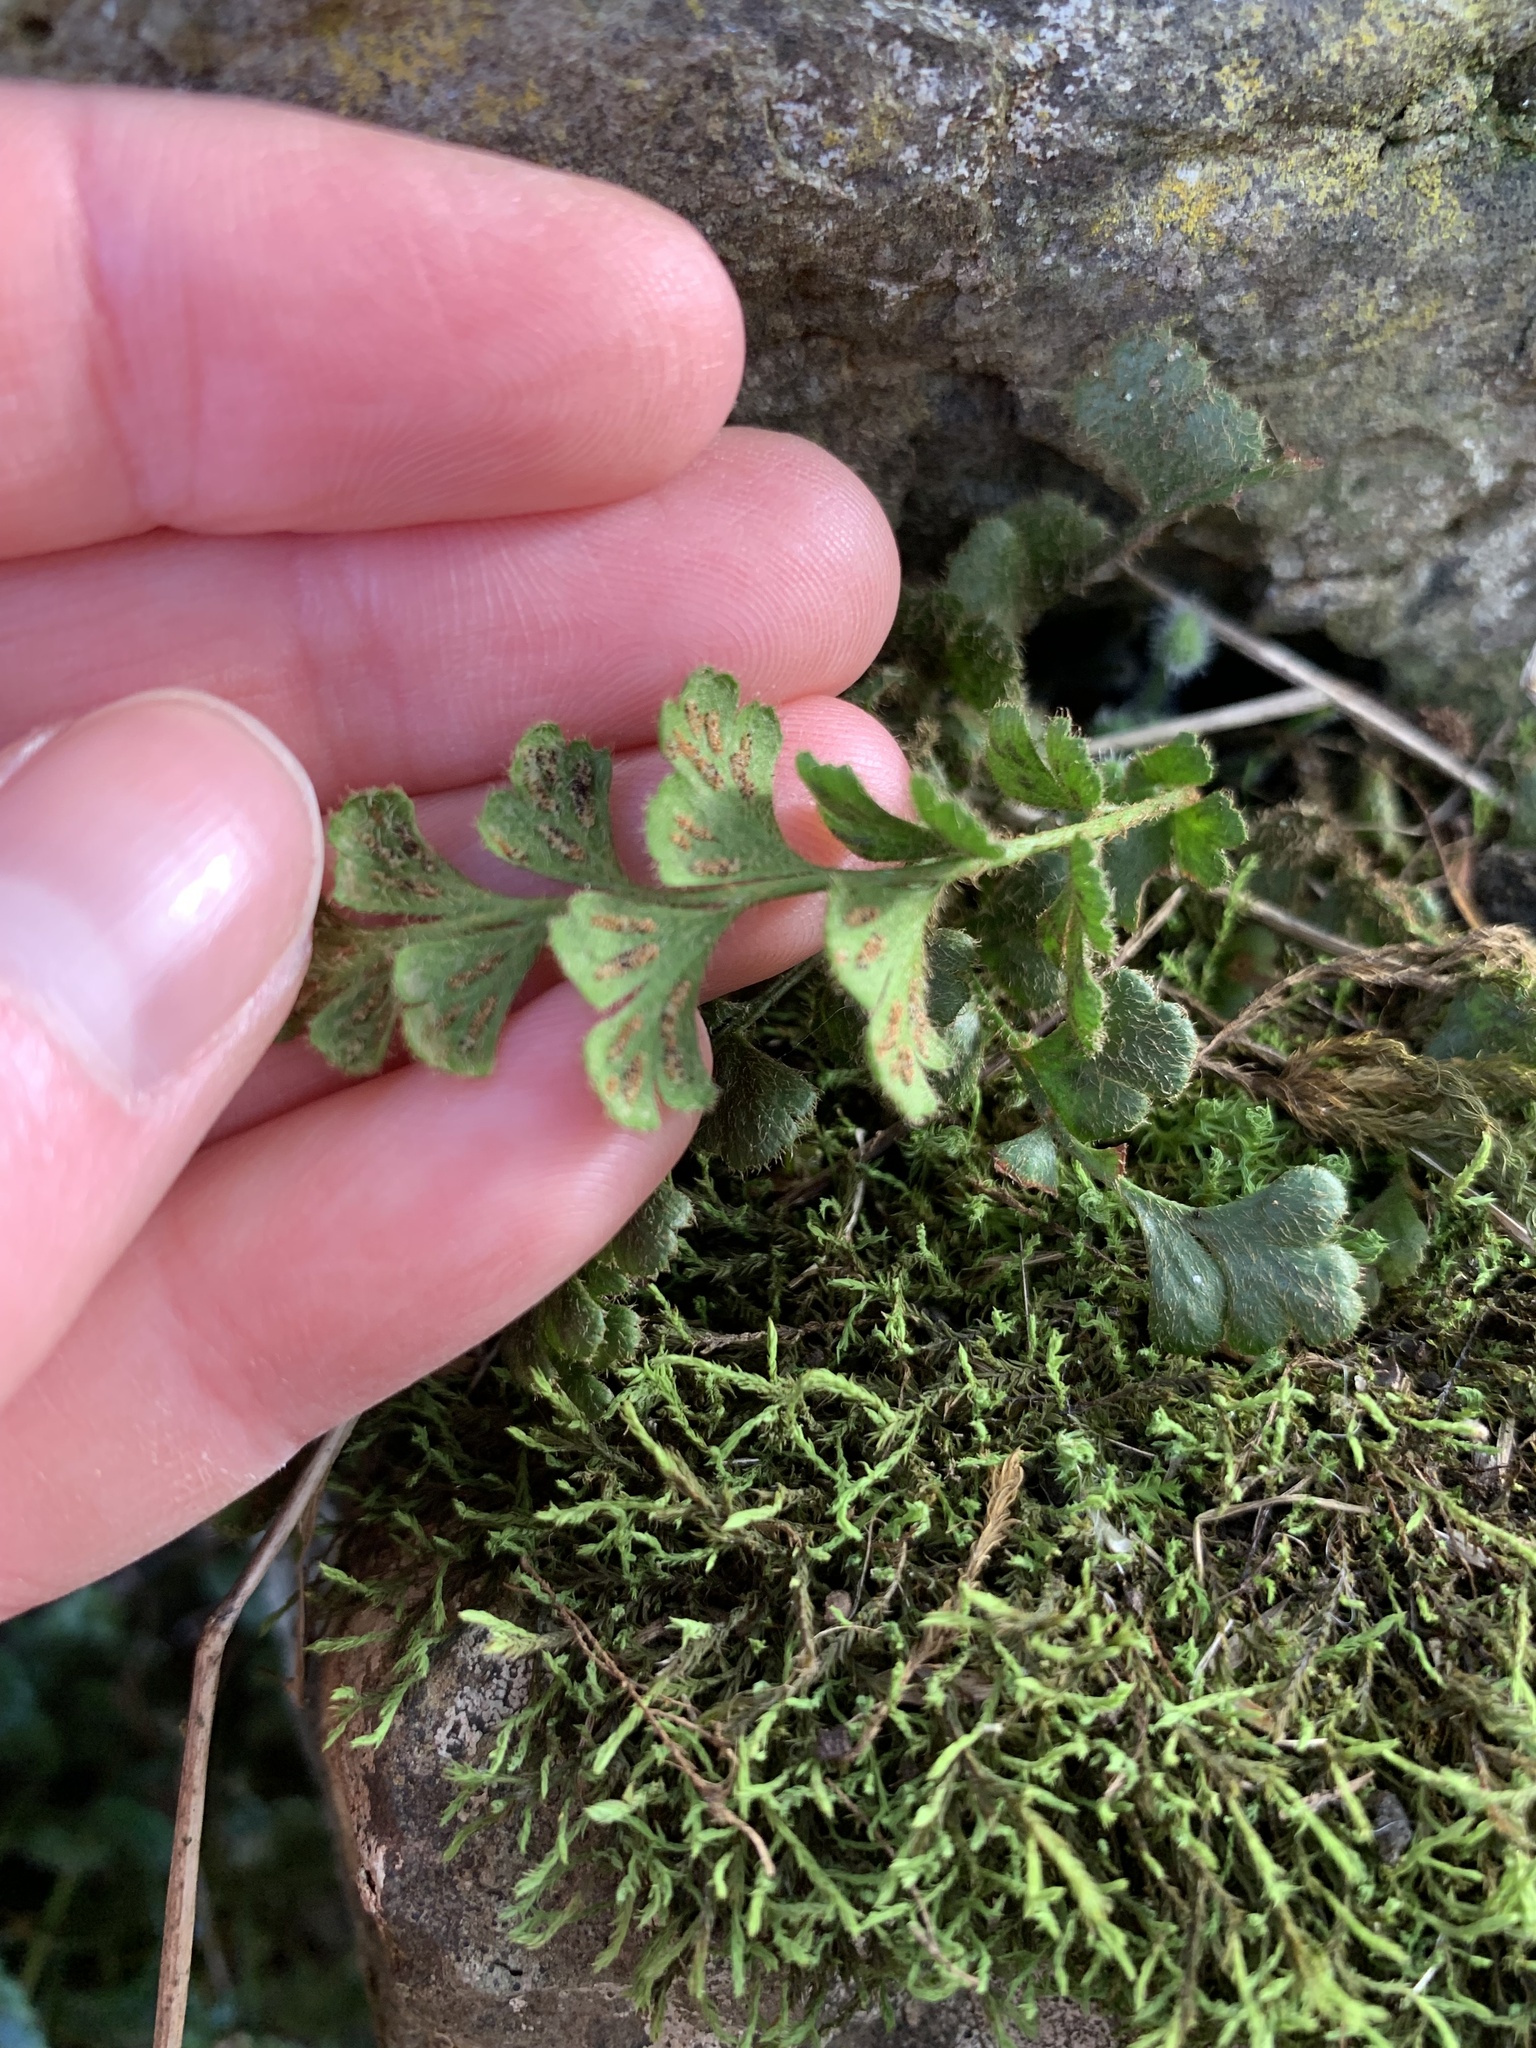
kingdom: Plantae
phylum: Tracheophyta
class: Polypodiopsida
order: Polypodiales
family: Aspleniaceae
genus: Asplenium
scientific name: Asplenium subglandulosum
